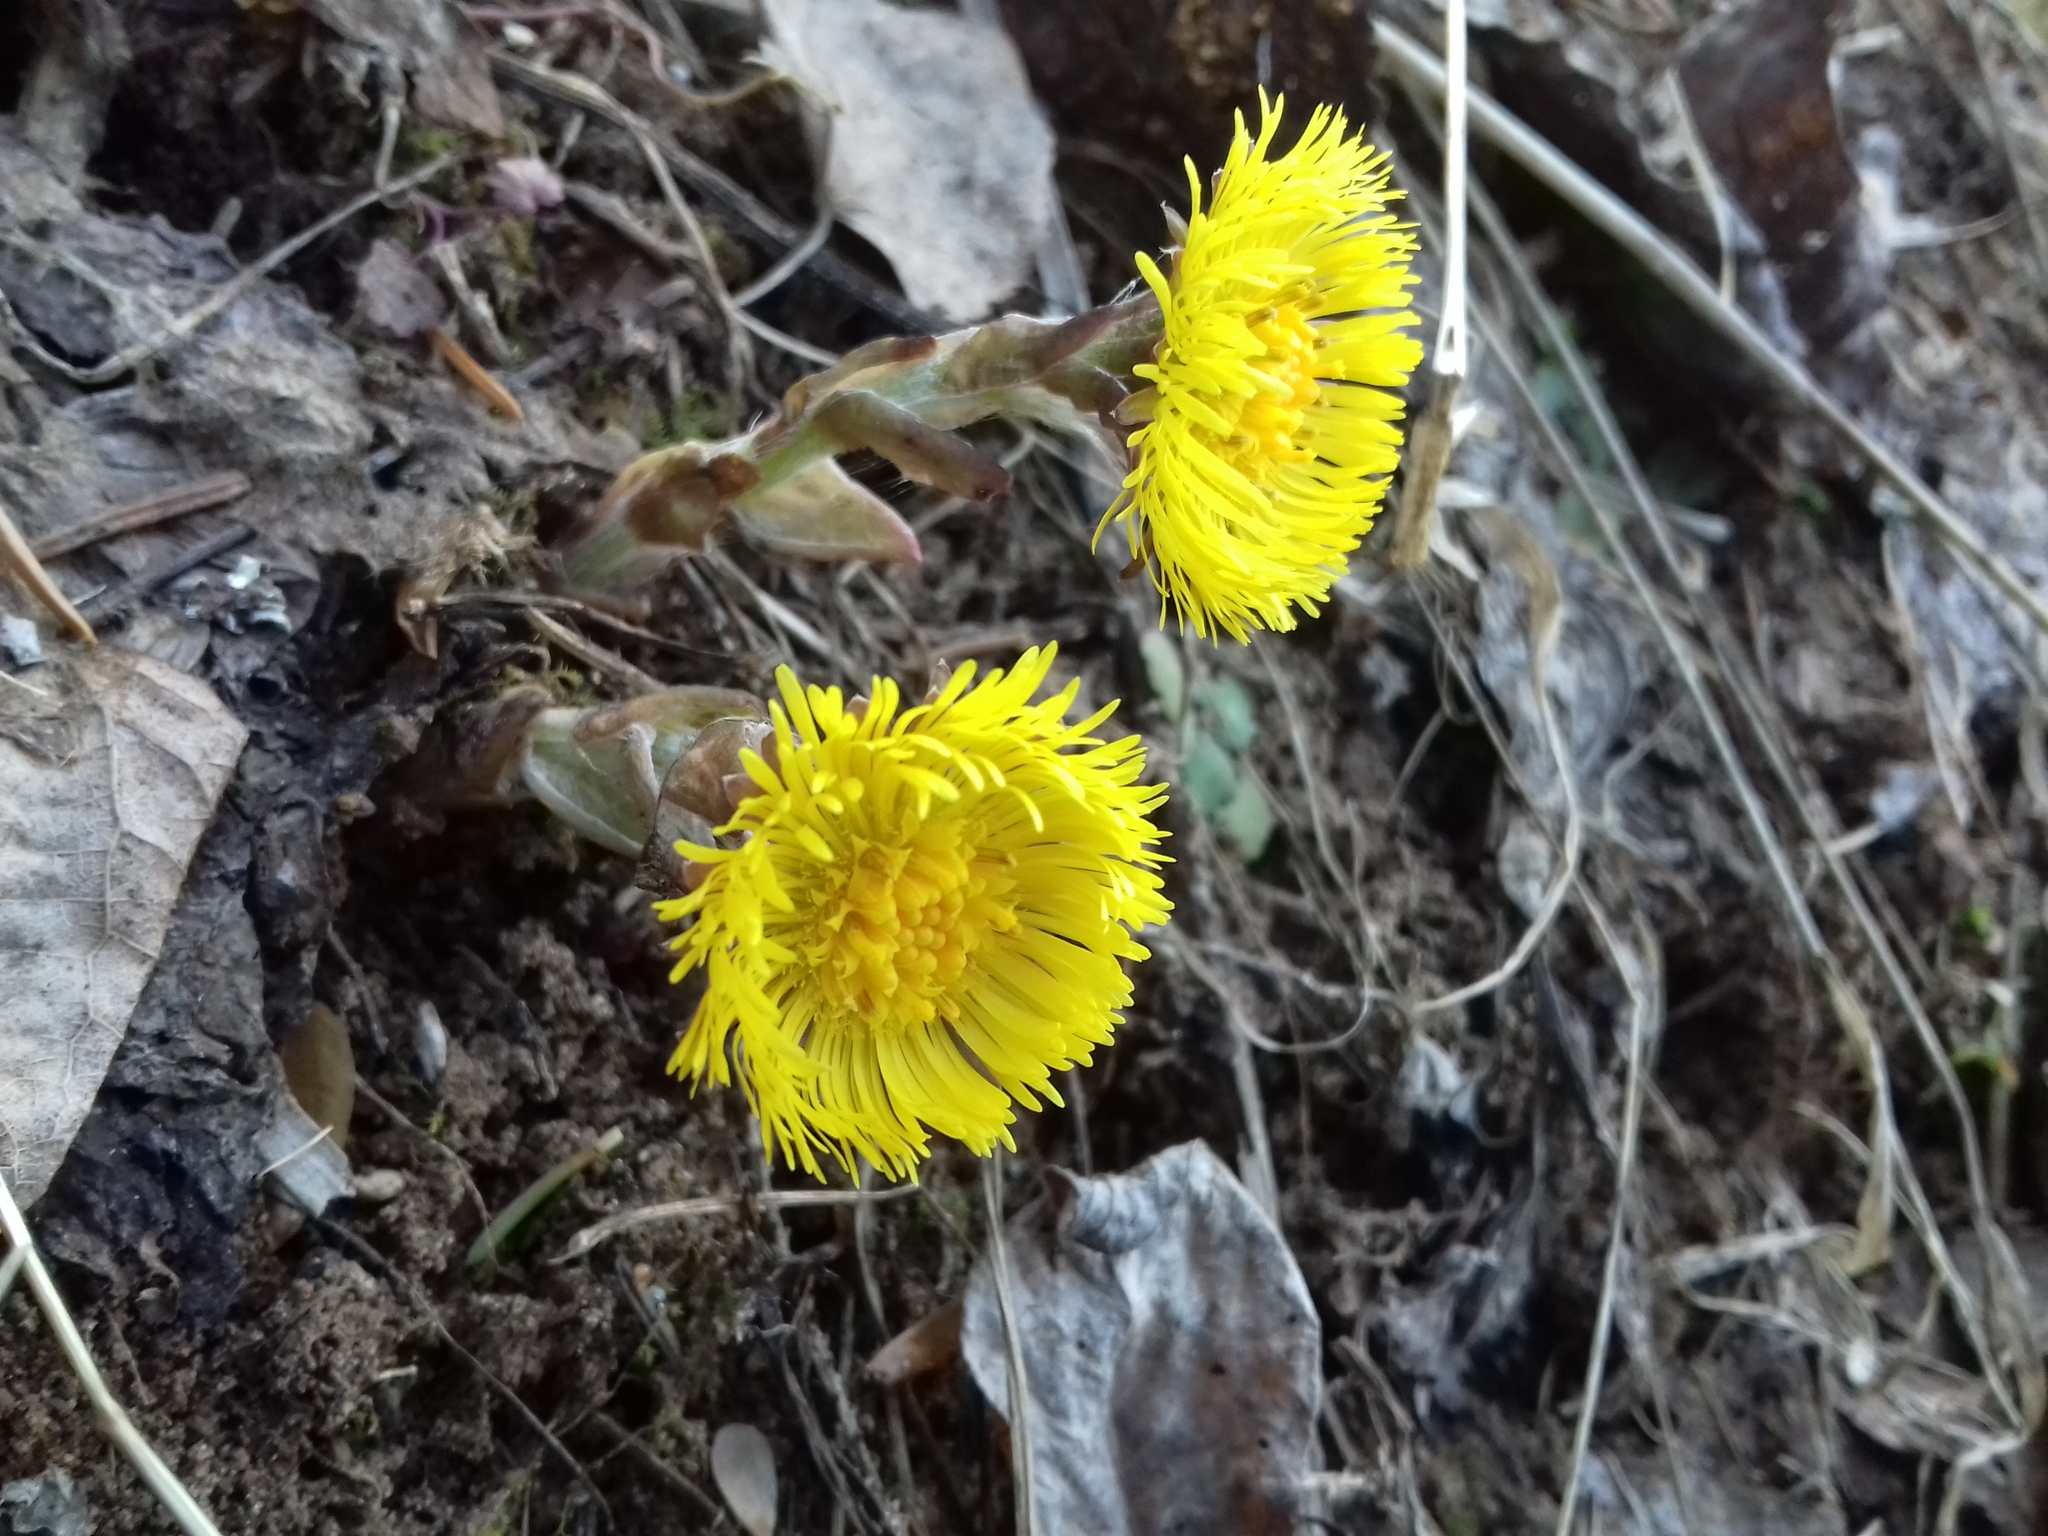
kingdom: Plantae
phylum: Tracheophyta
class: Magnoliopsida
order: Asterales
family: Asteraceae
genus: Tussilago
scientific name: Tussilago farfara
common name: Coltsfoot
